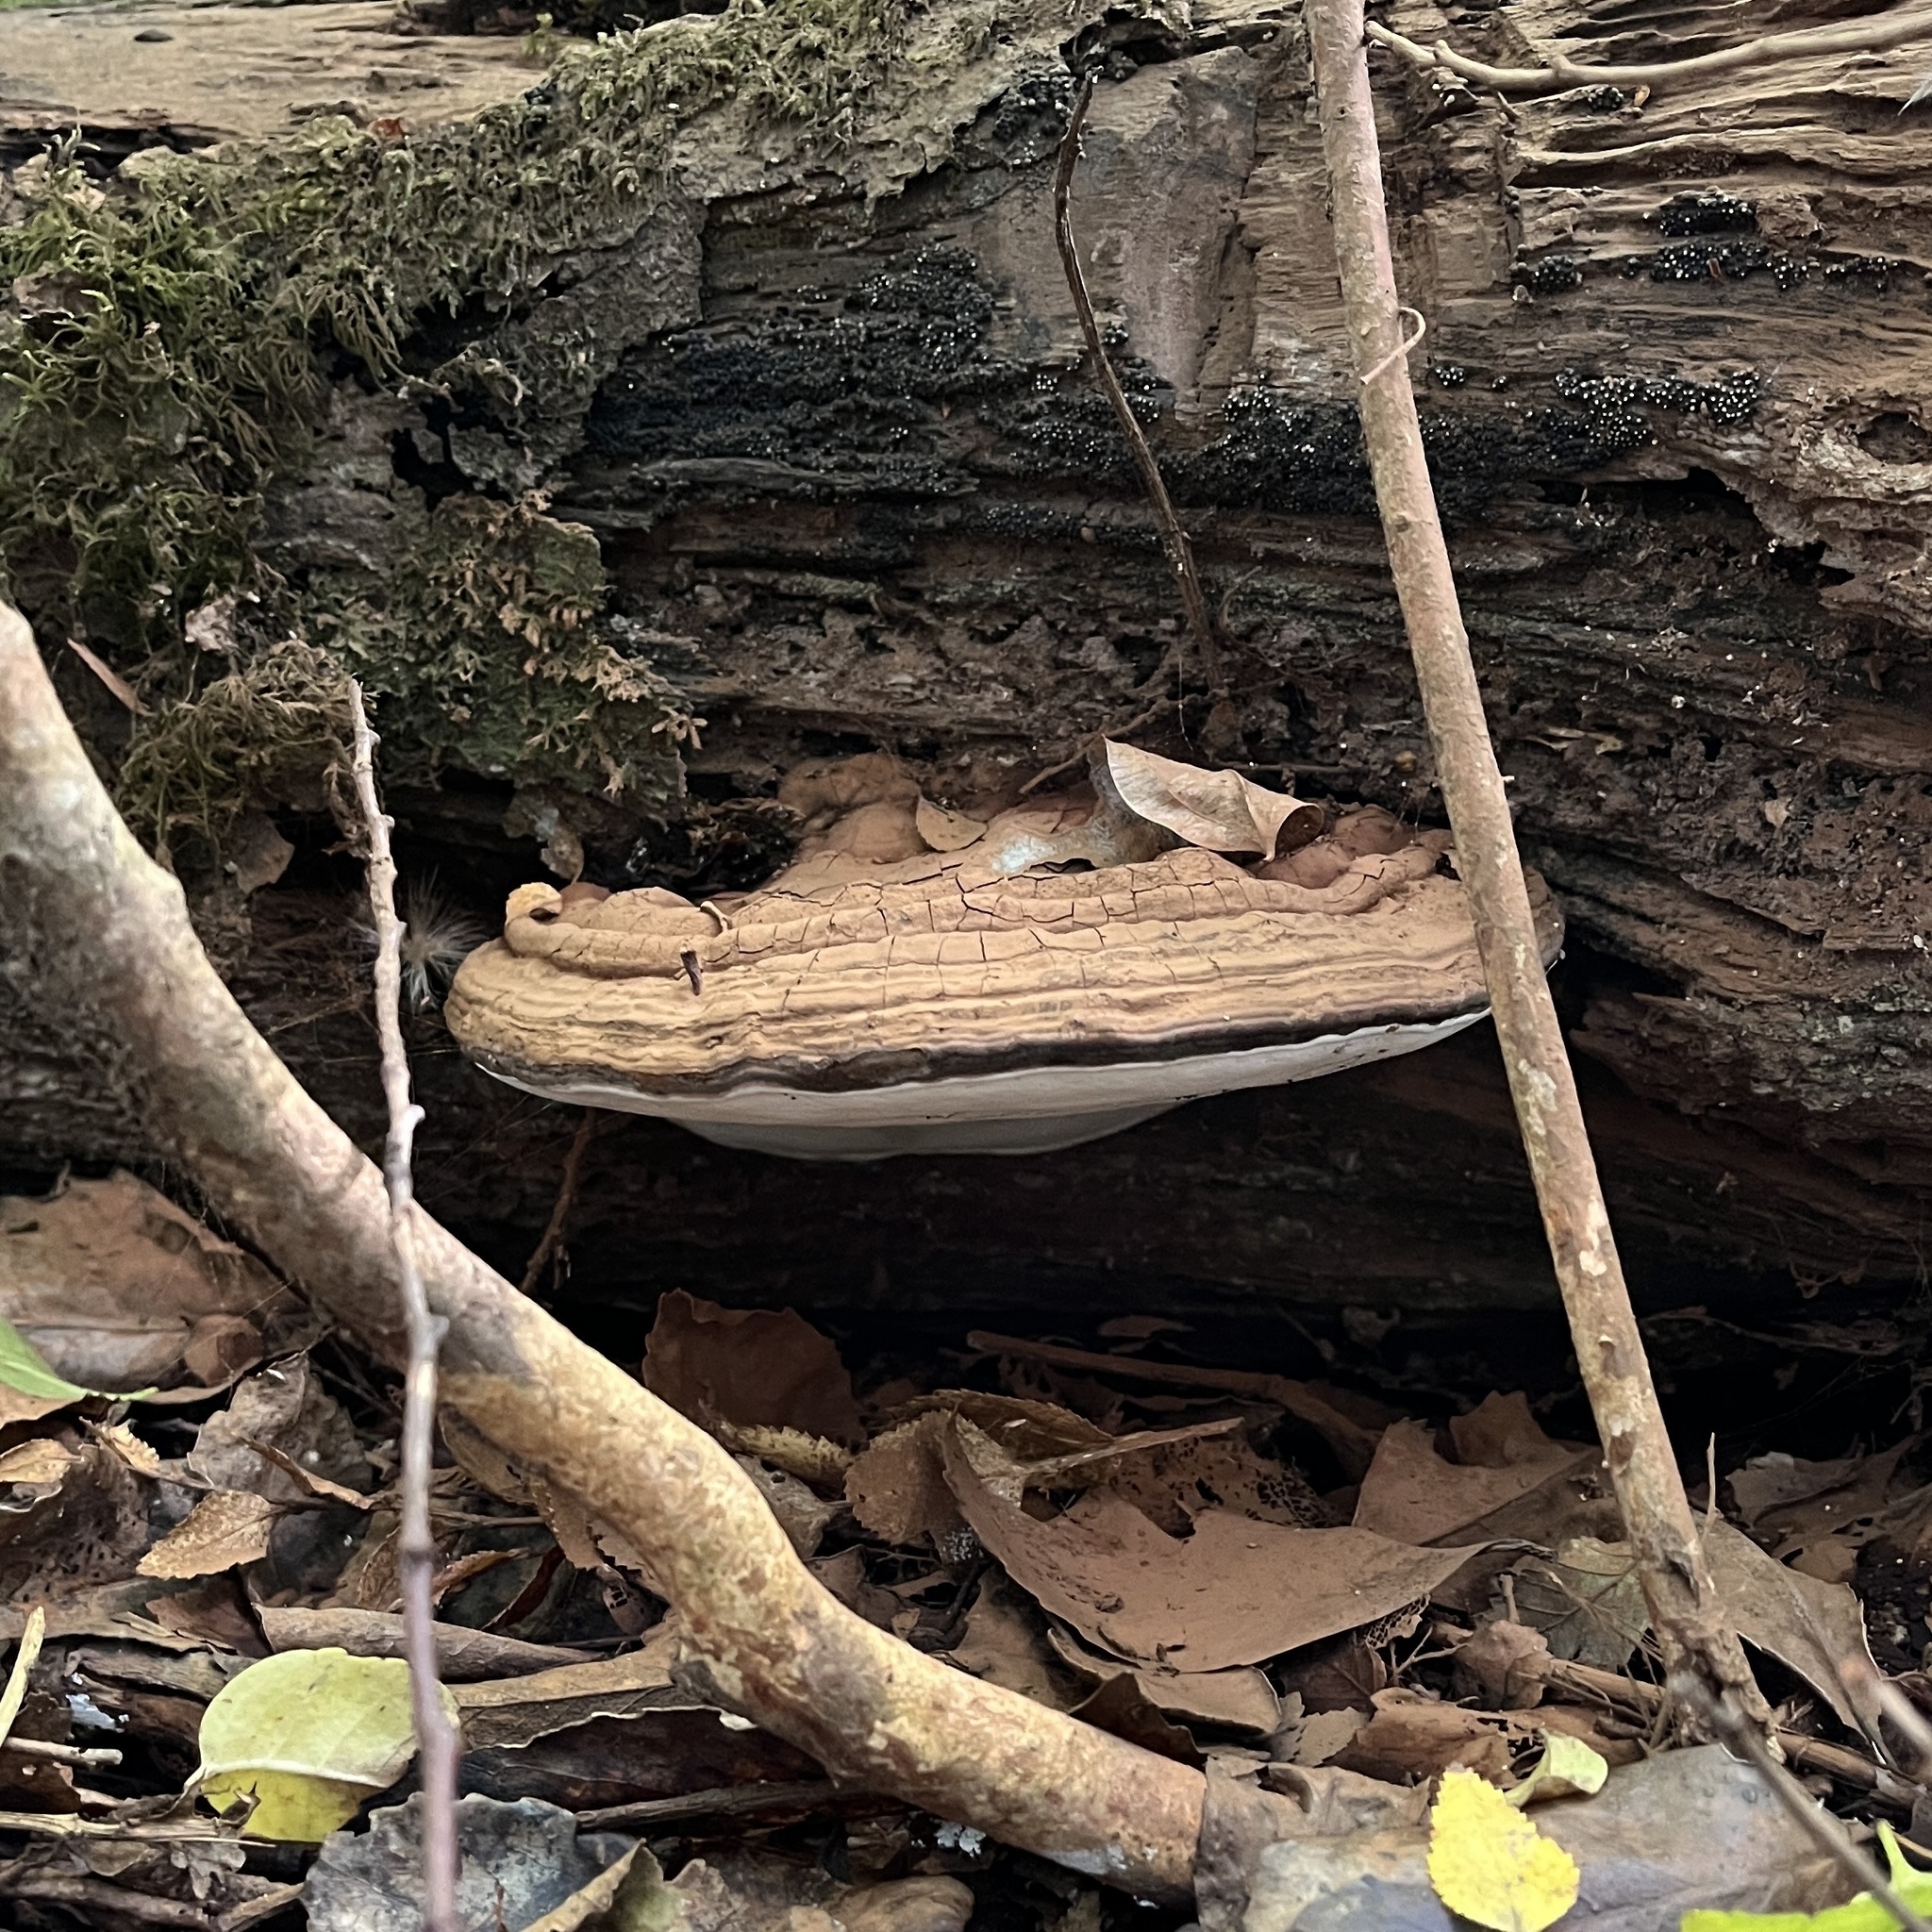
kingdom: Fungi
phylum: Basidiomycota
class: Agaricomycetes
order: Polyporales
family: Polyporaceae
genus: Ganoderma
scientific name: Ganoderma australe
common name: Southern bracket
